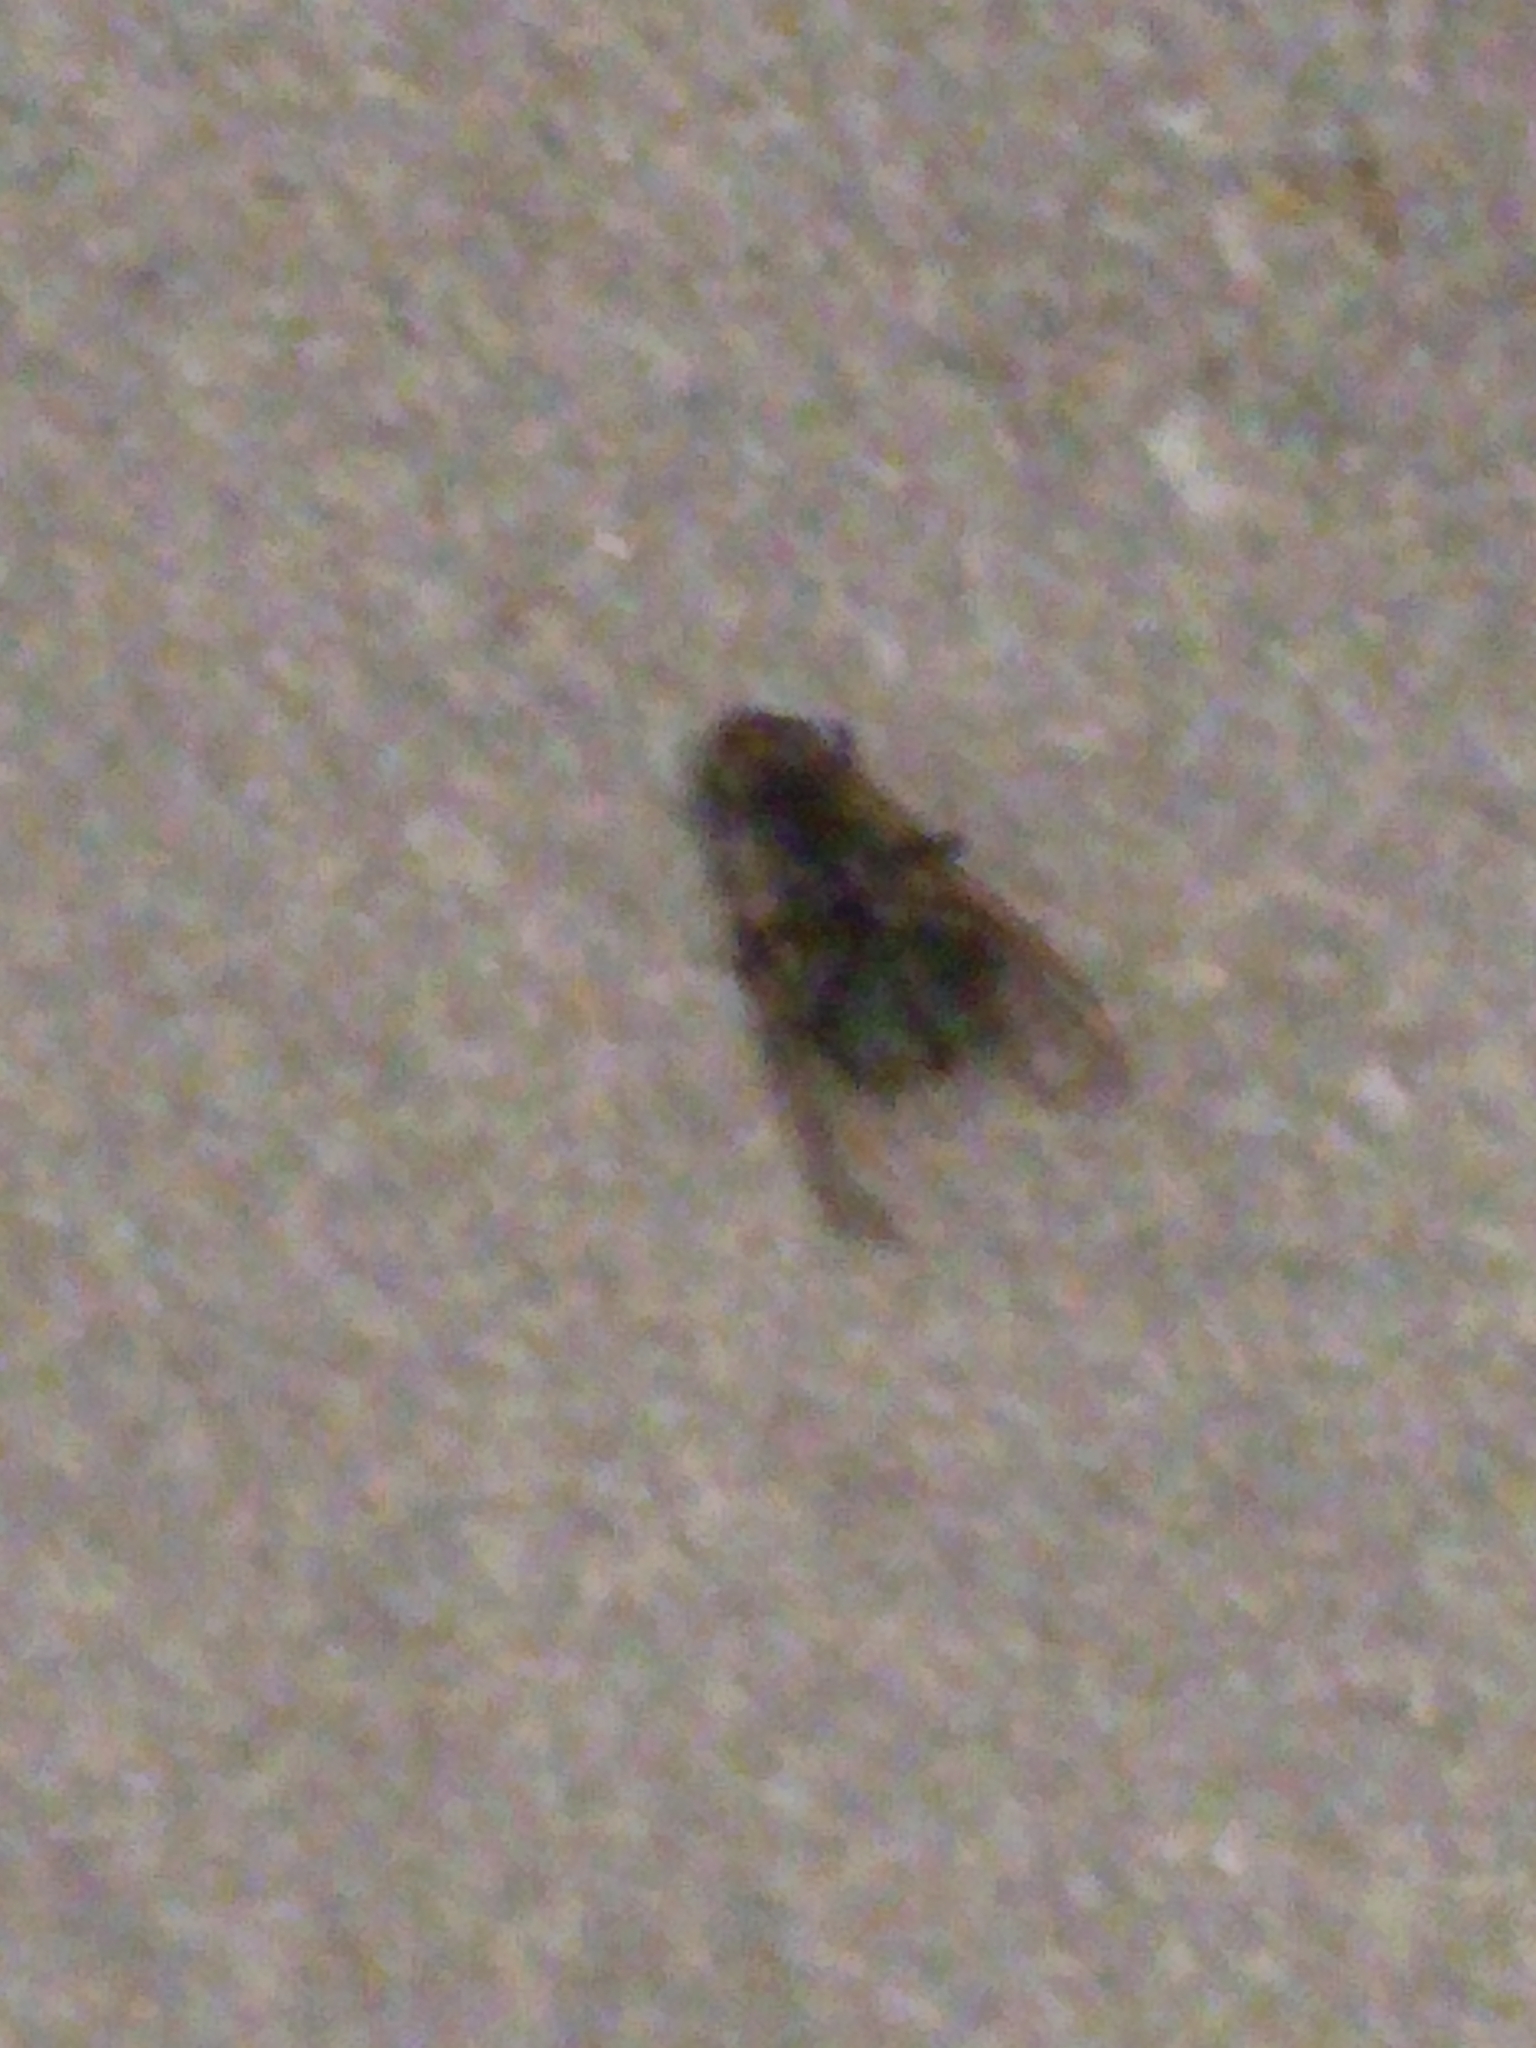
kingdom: Animalia
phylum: Arthropoda
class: Insecta
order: Diptera
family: Polleniidae
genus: Pollenia
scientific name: Pollenia vagabunda
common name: Vagabund cluster fly
